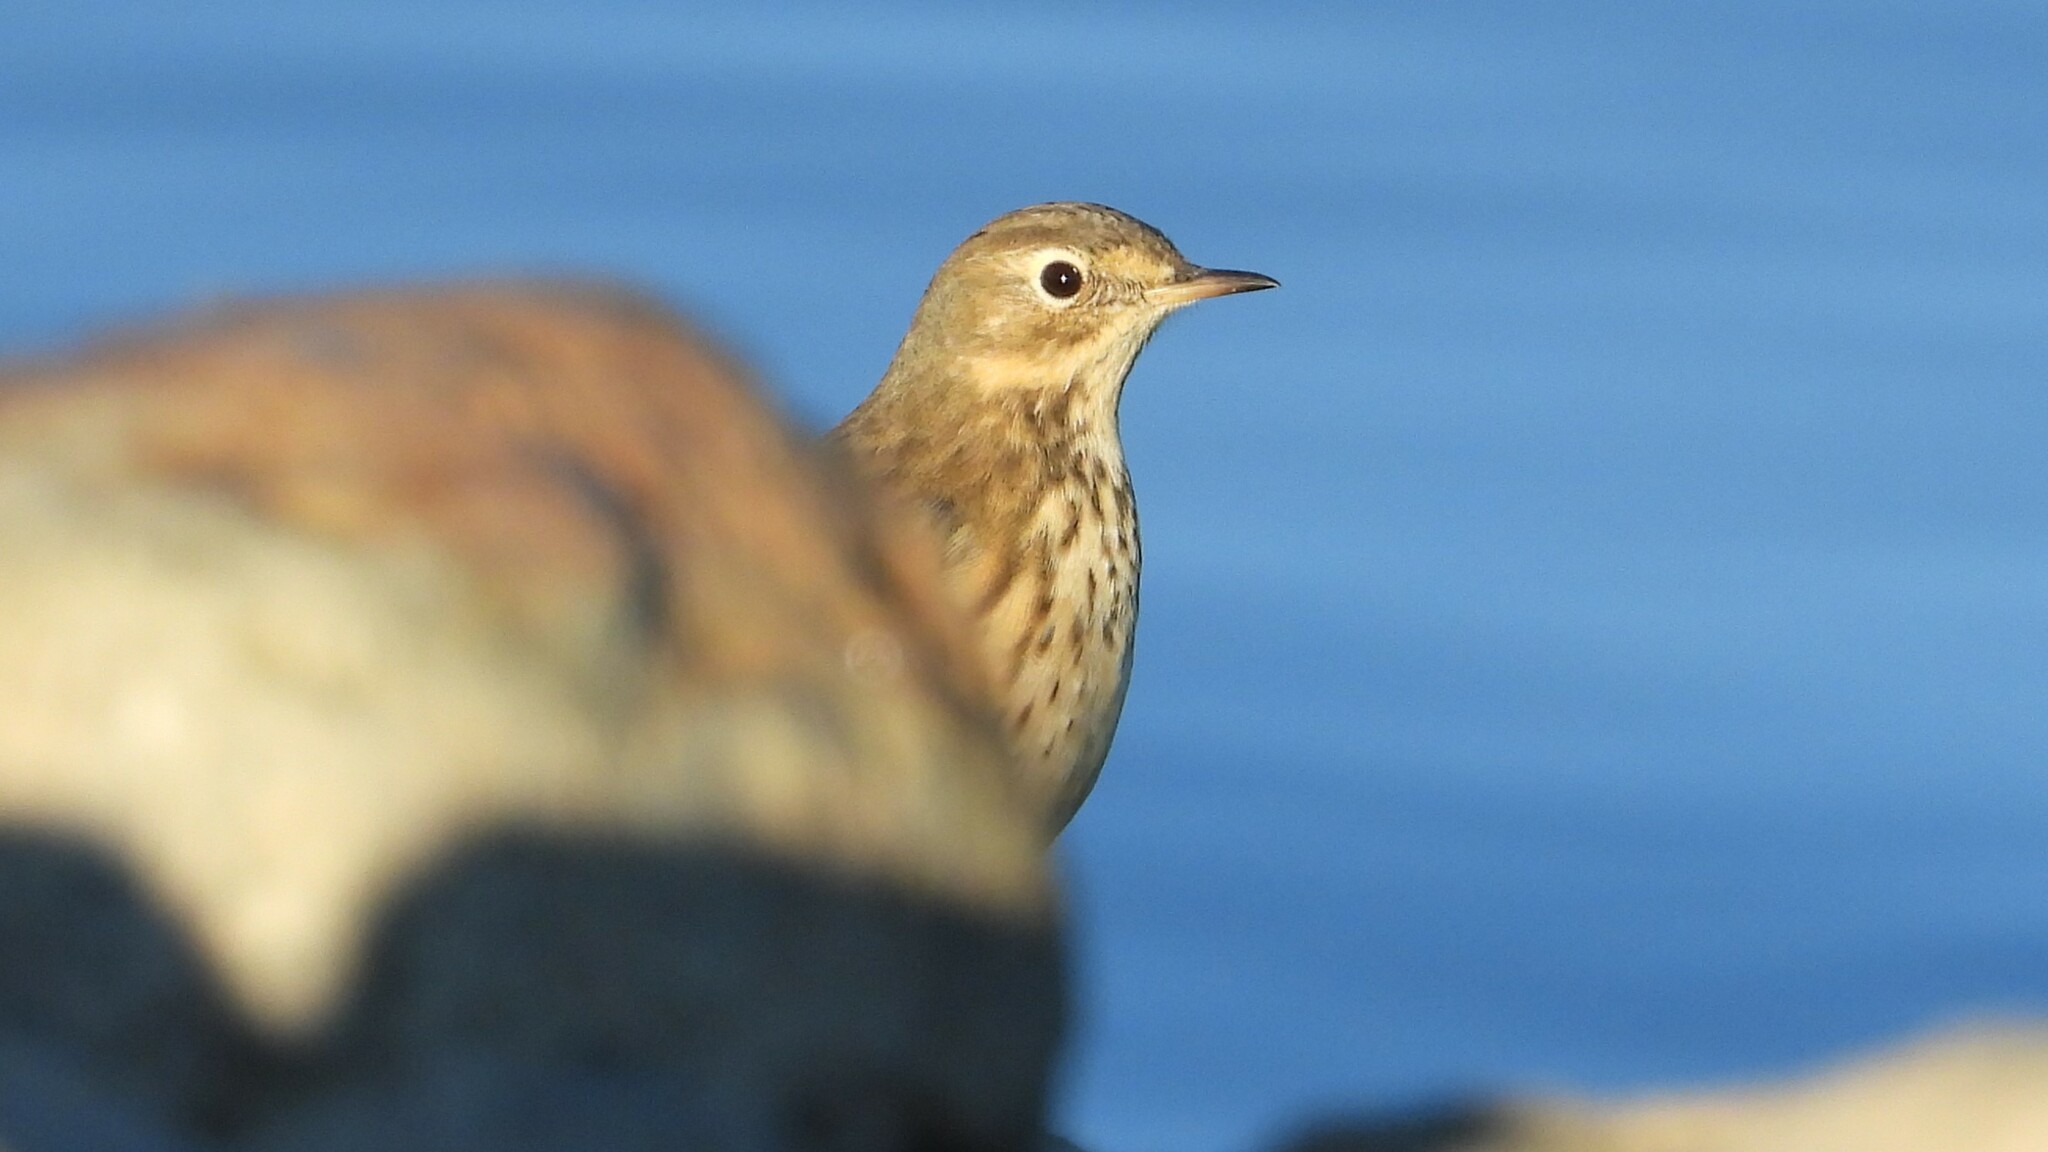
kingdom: Animalia
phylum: Chordata
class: Aves
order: Passeriformes
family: Motacillidae
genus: Anthus
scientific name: Anthus rubescens
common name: Buff-bellied pipit
